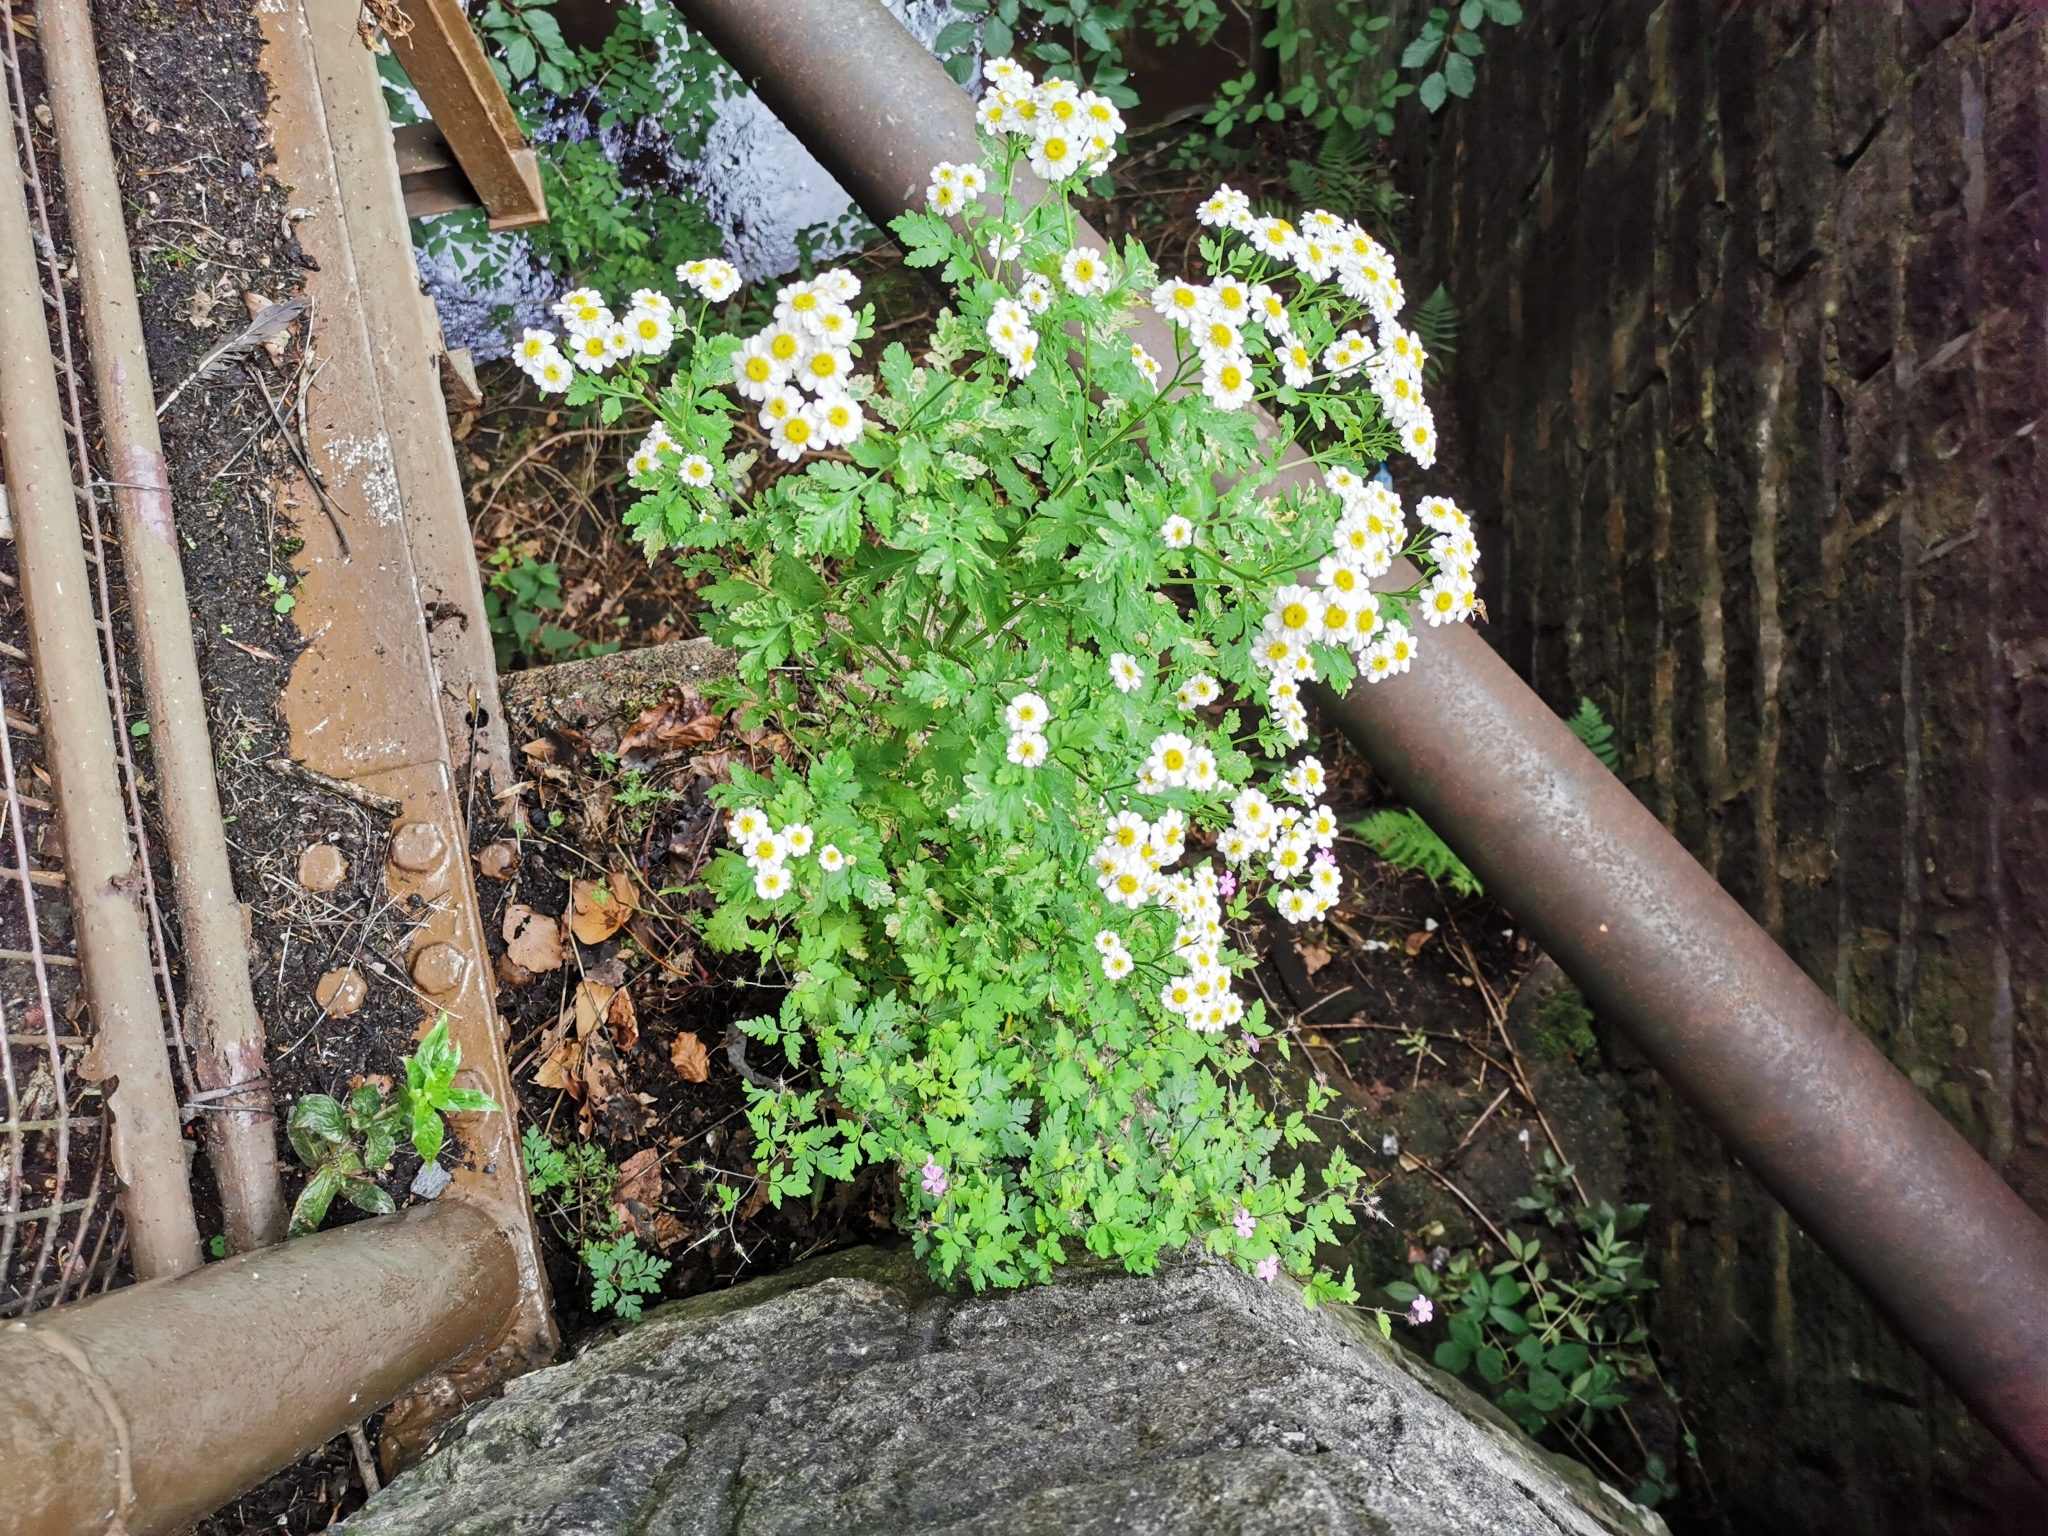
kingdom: Plantae
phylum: Tracheophyta
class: Magnoliopsida
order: Asterales
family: Asteraceae
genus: Tanacetum
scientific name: Tanacetum parthenium
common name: Feverfew
